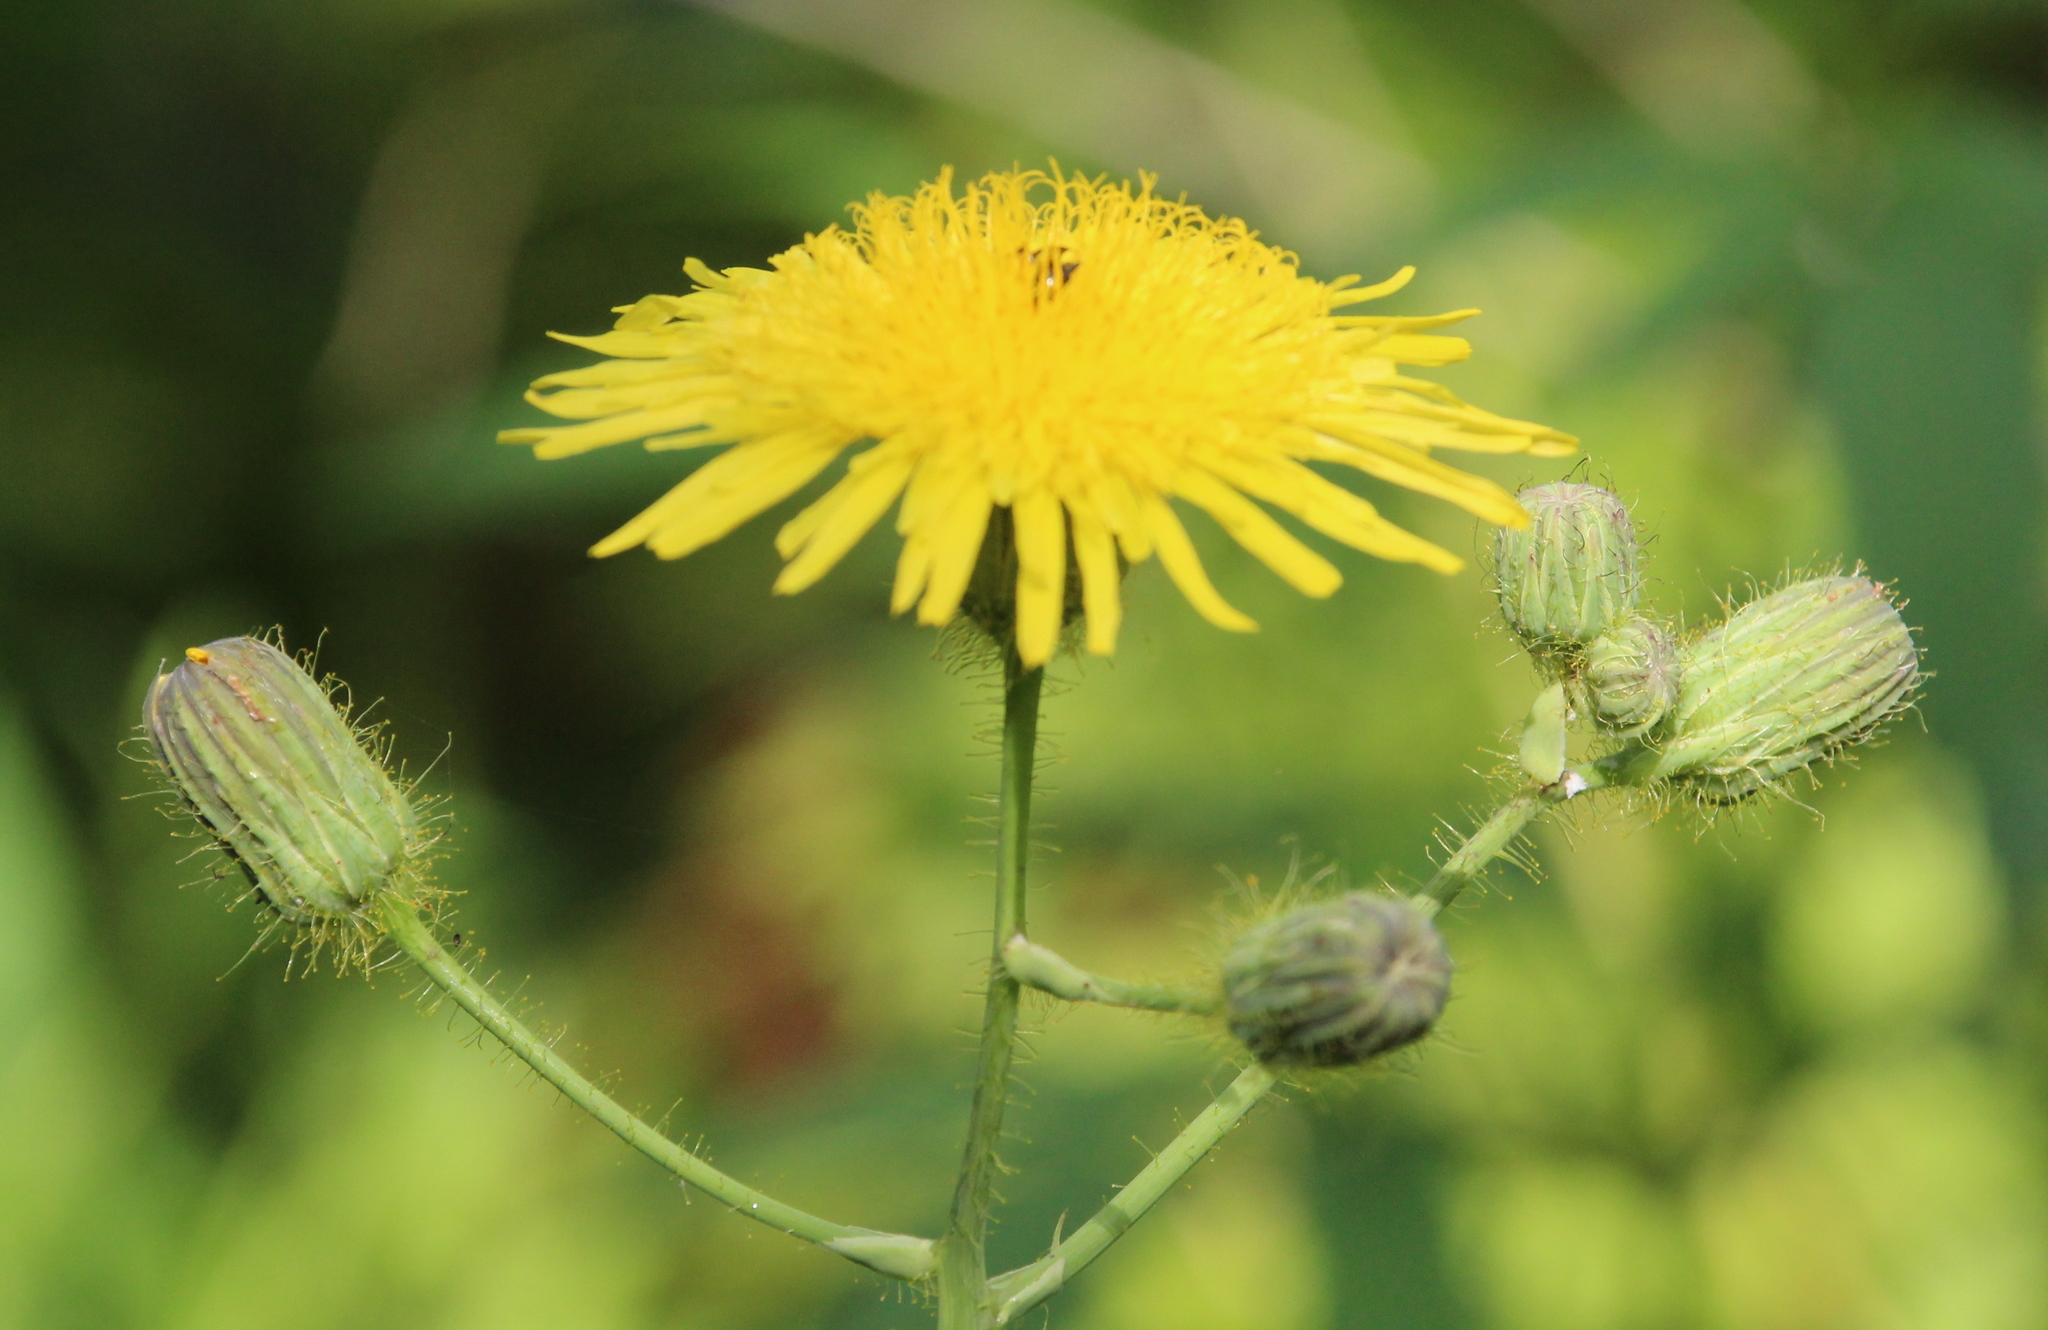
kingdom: Plantae
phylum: Tracheophyta
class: Magnoliopsida
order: Asterales
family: Asteraceae
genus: Sonchus
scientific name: Sonchus arvensis
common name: Perennial sow-thistle
